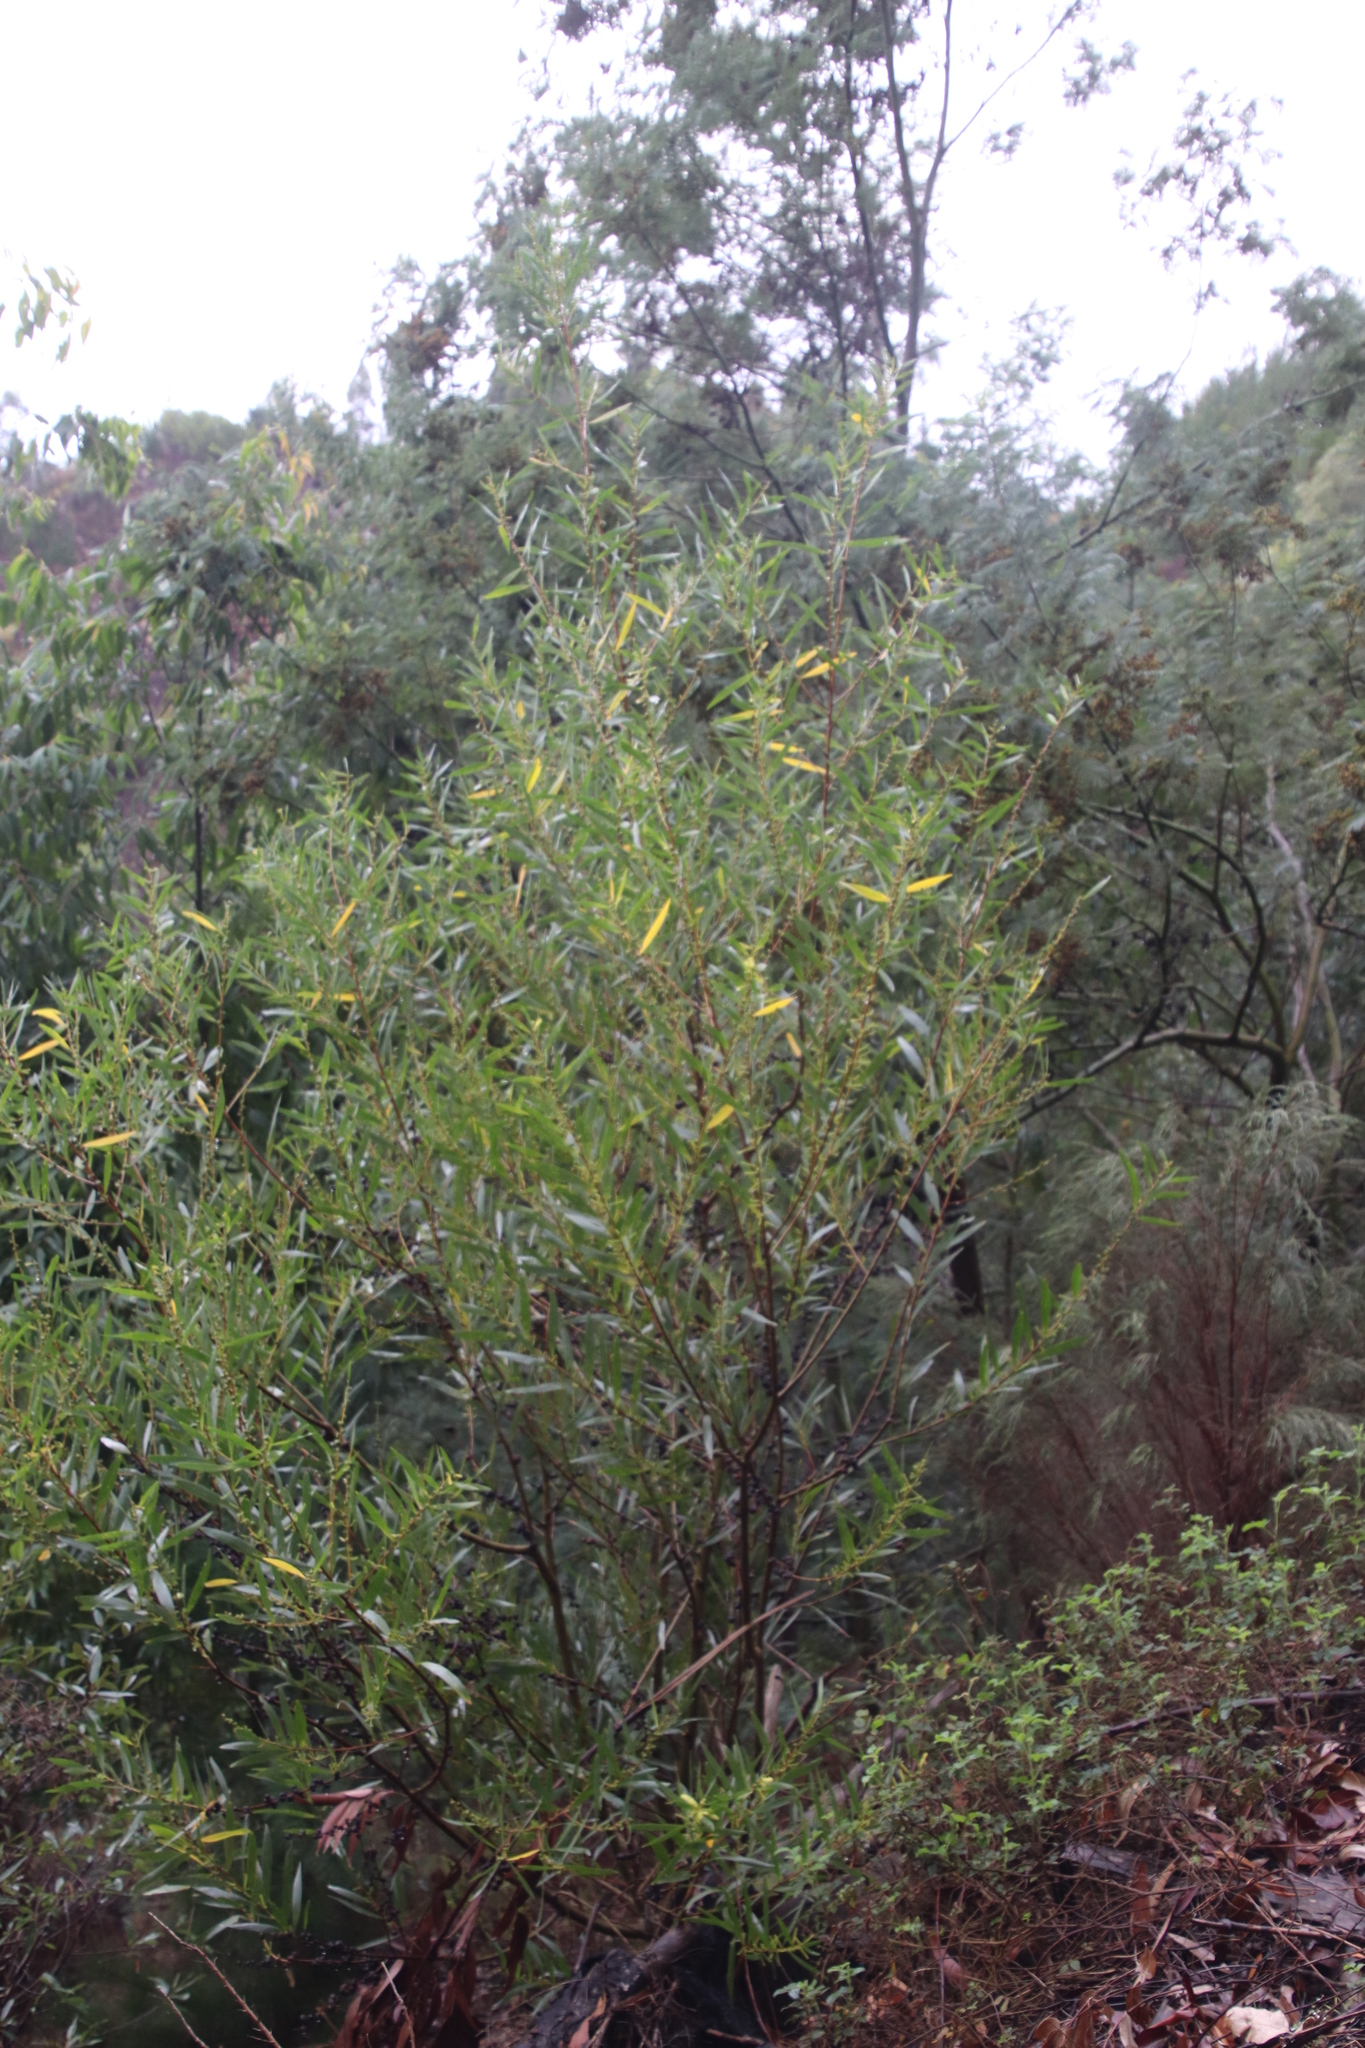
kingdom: Plantae
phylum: Tracheophyta
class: Magnoliopsida
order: Fabales
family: Fabaceae
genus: Acacia
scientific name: Acacia longifolia
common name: Sydney golden wattle
